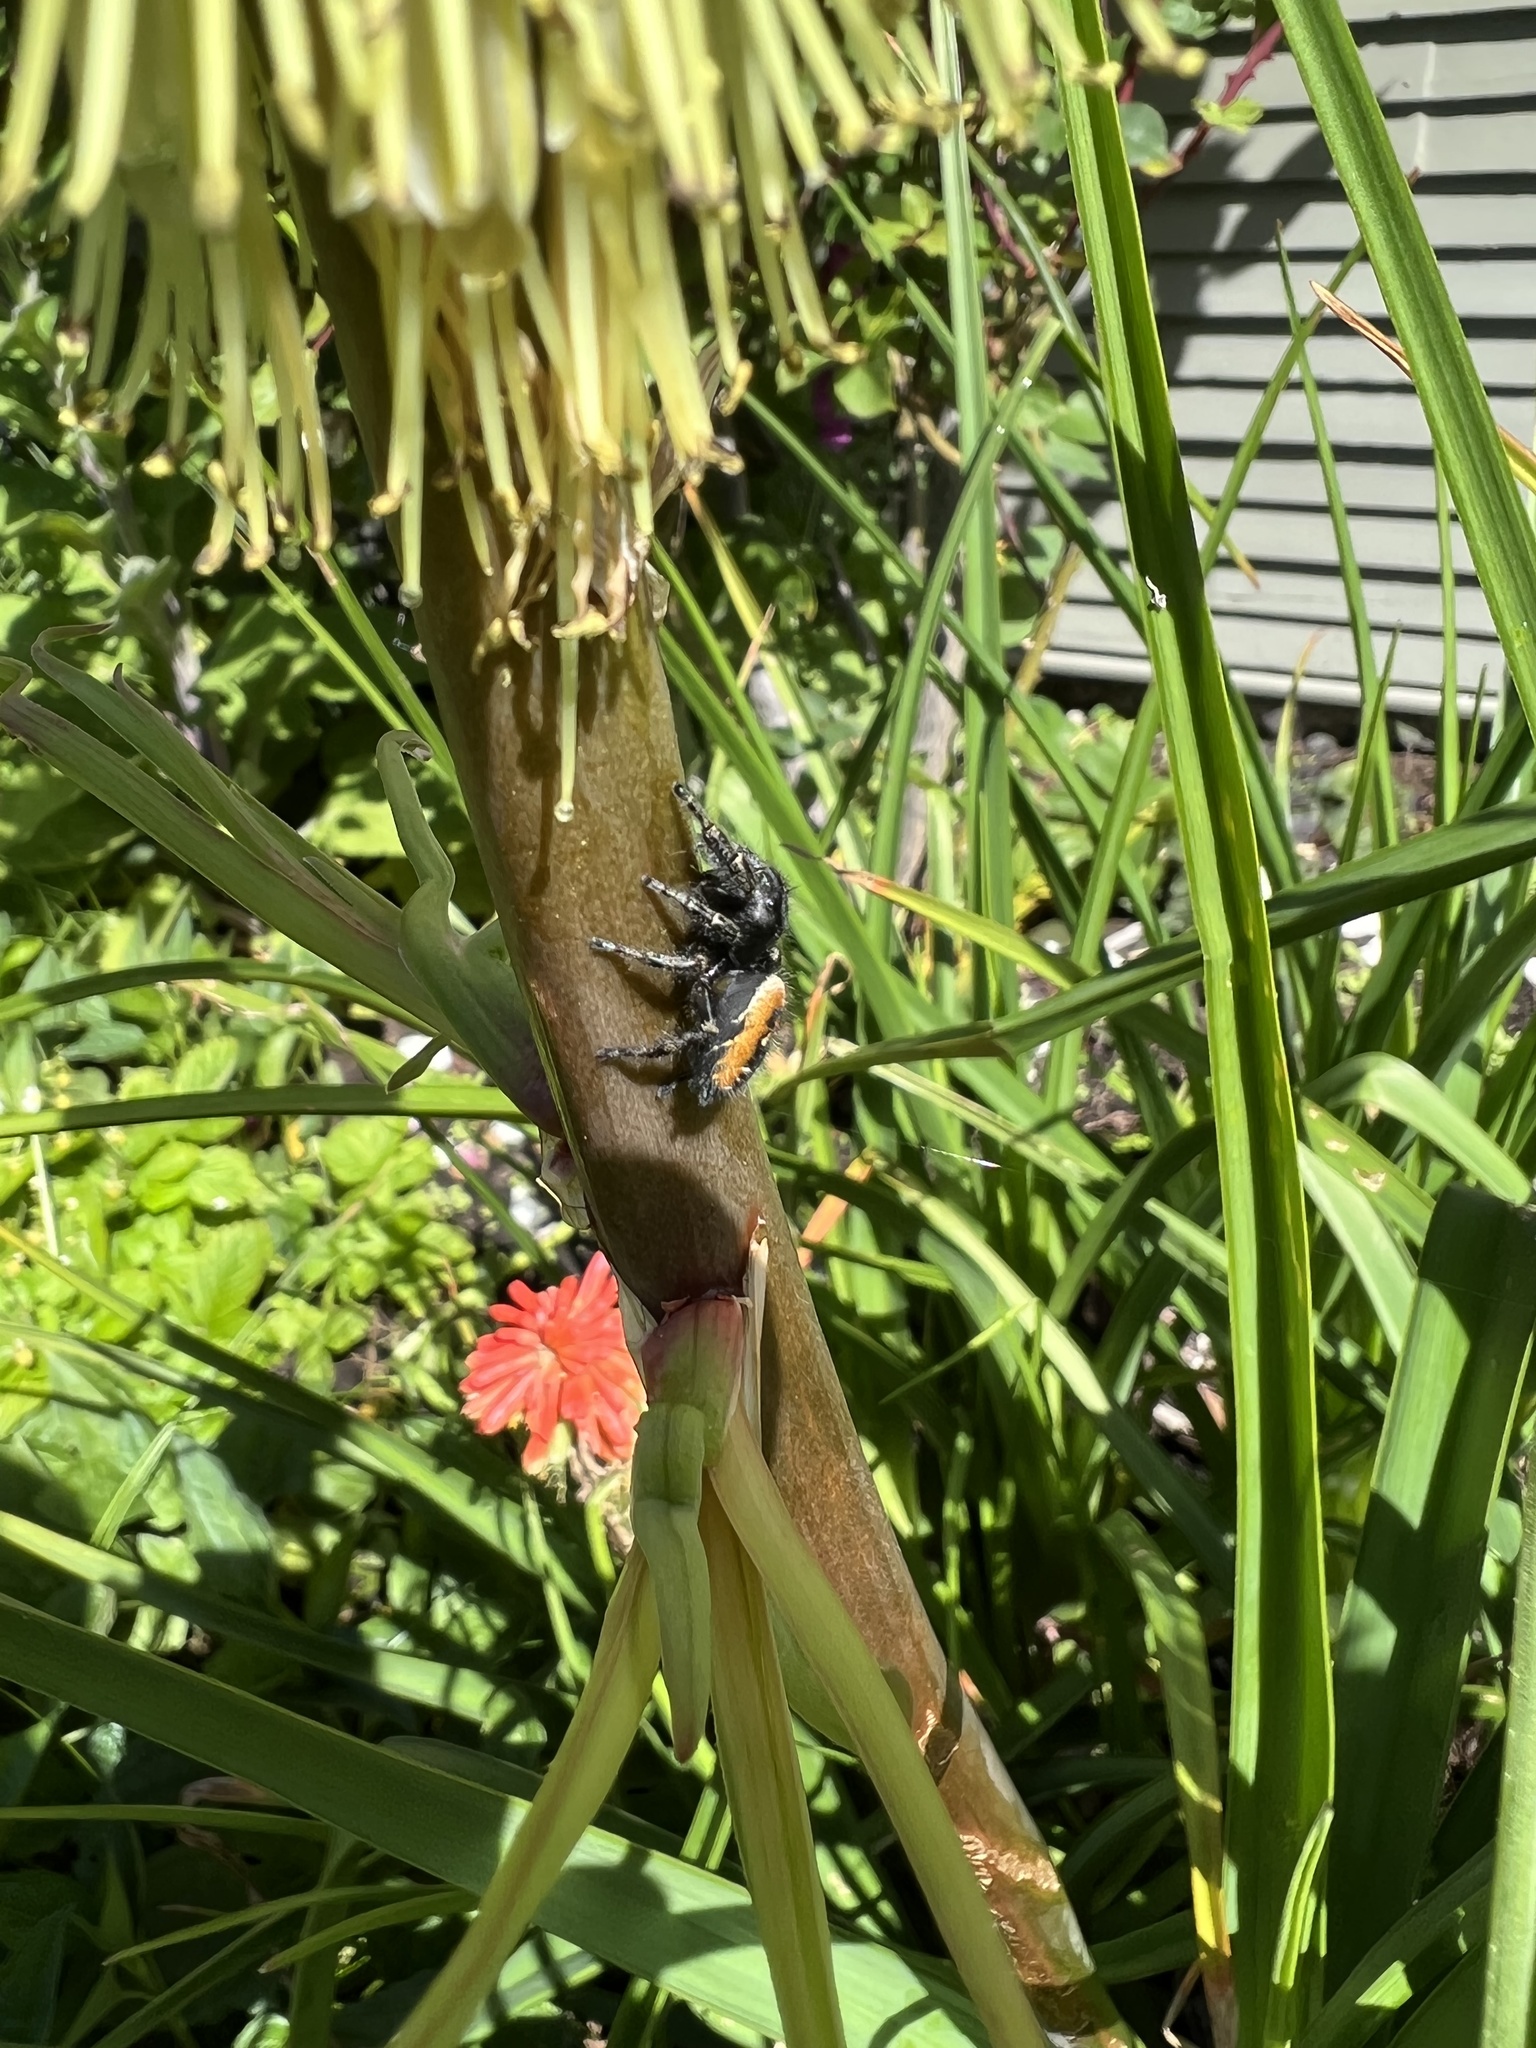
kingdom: Animalia
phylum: Arthropoda
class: Arachnida
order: Araneae
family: Salticidae
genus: Phidippus
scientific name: Phidippus johnsoni
